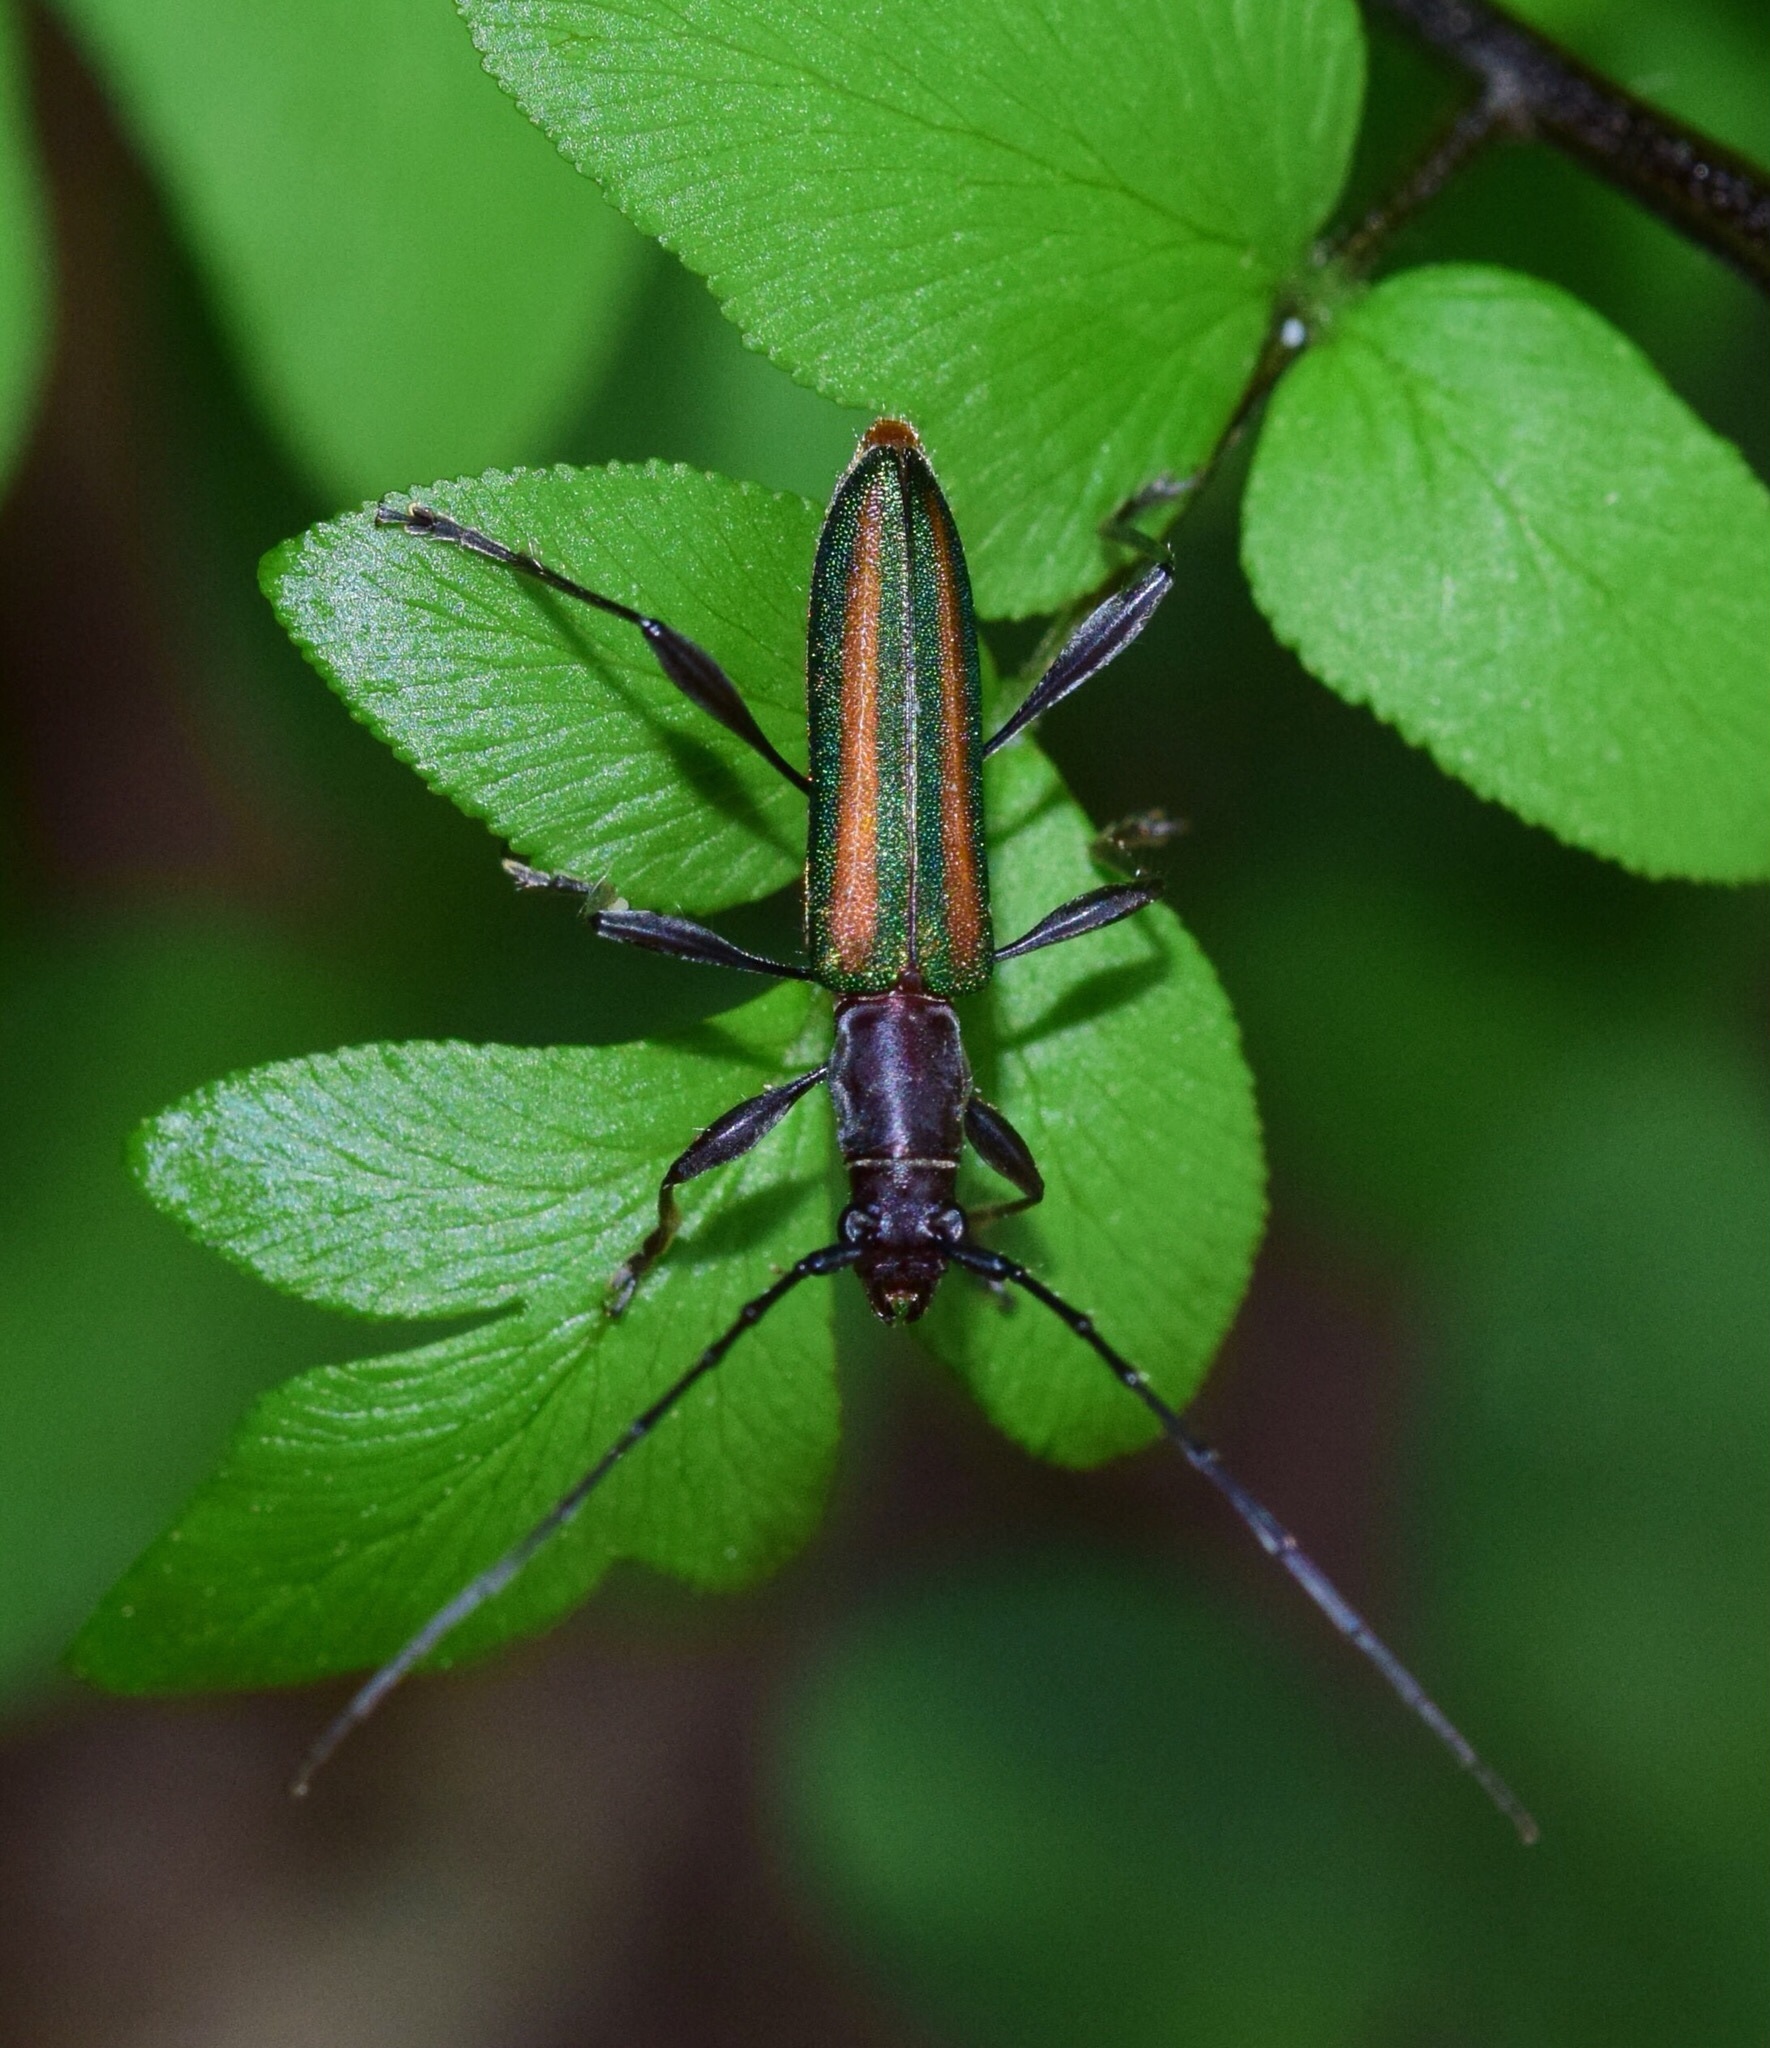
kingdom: Animalia
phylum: Arthropoda
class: Insecta
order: Coleoptera
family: Cerambycidae
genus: Zosterius
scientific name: Zosterius laetus
